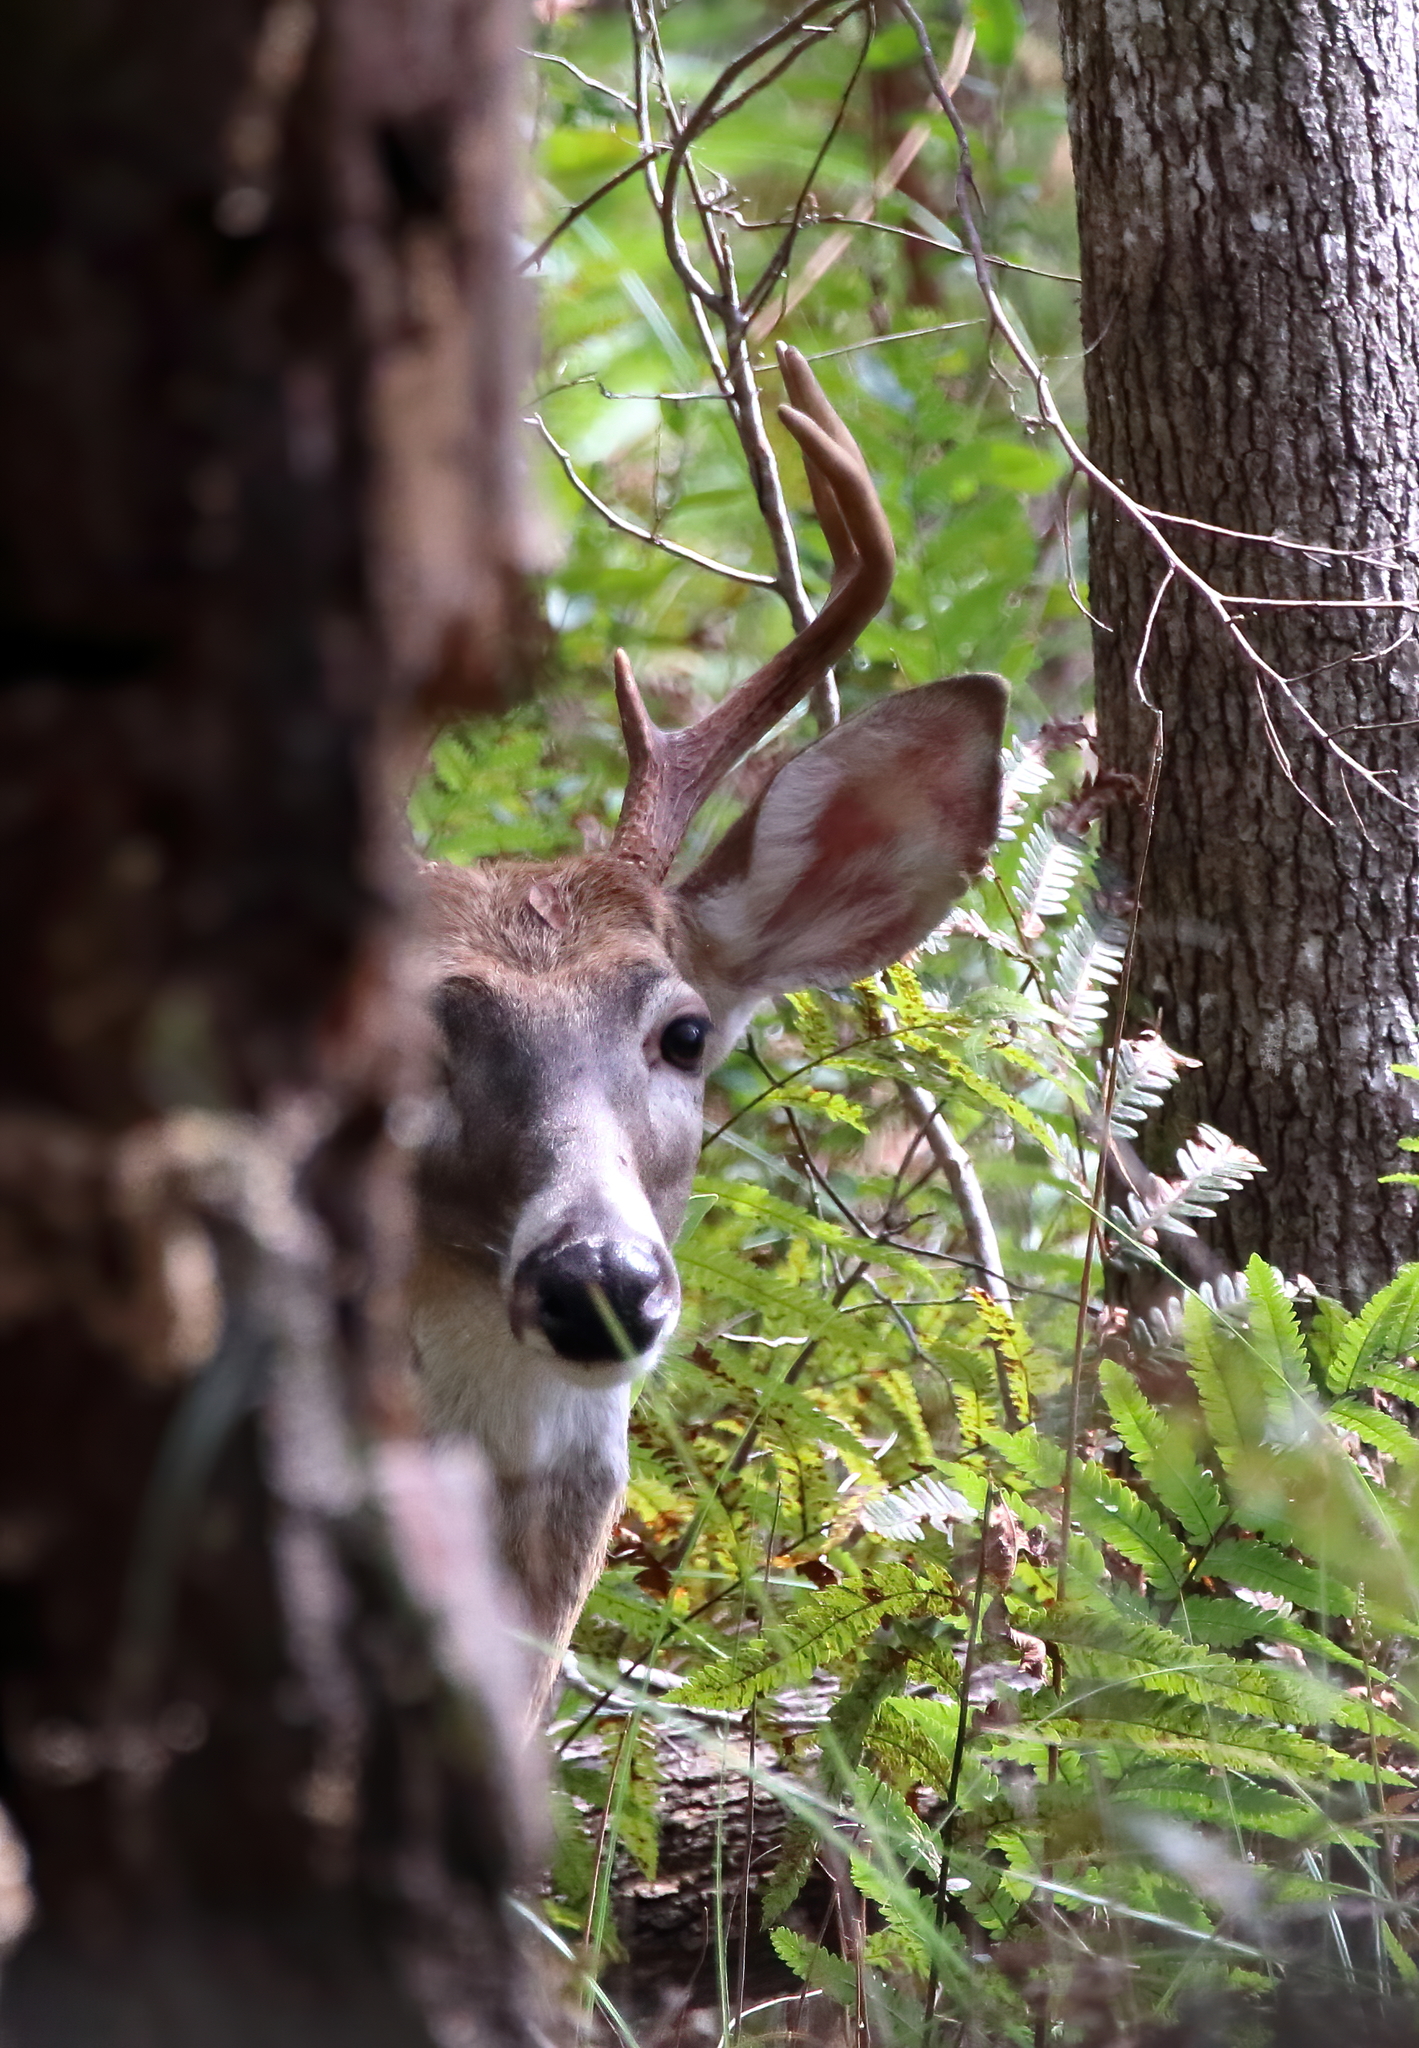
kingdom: Animalia
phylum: Chordata
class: Mammalia
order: Artiodactyla
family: Cervidae
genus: Odocoileus
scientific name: Odocoileus virginianus
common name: White-tailed deer
